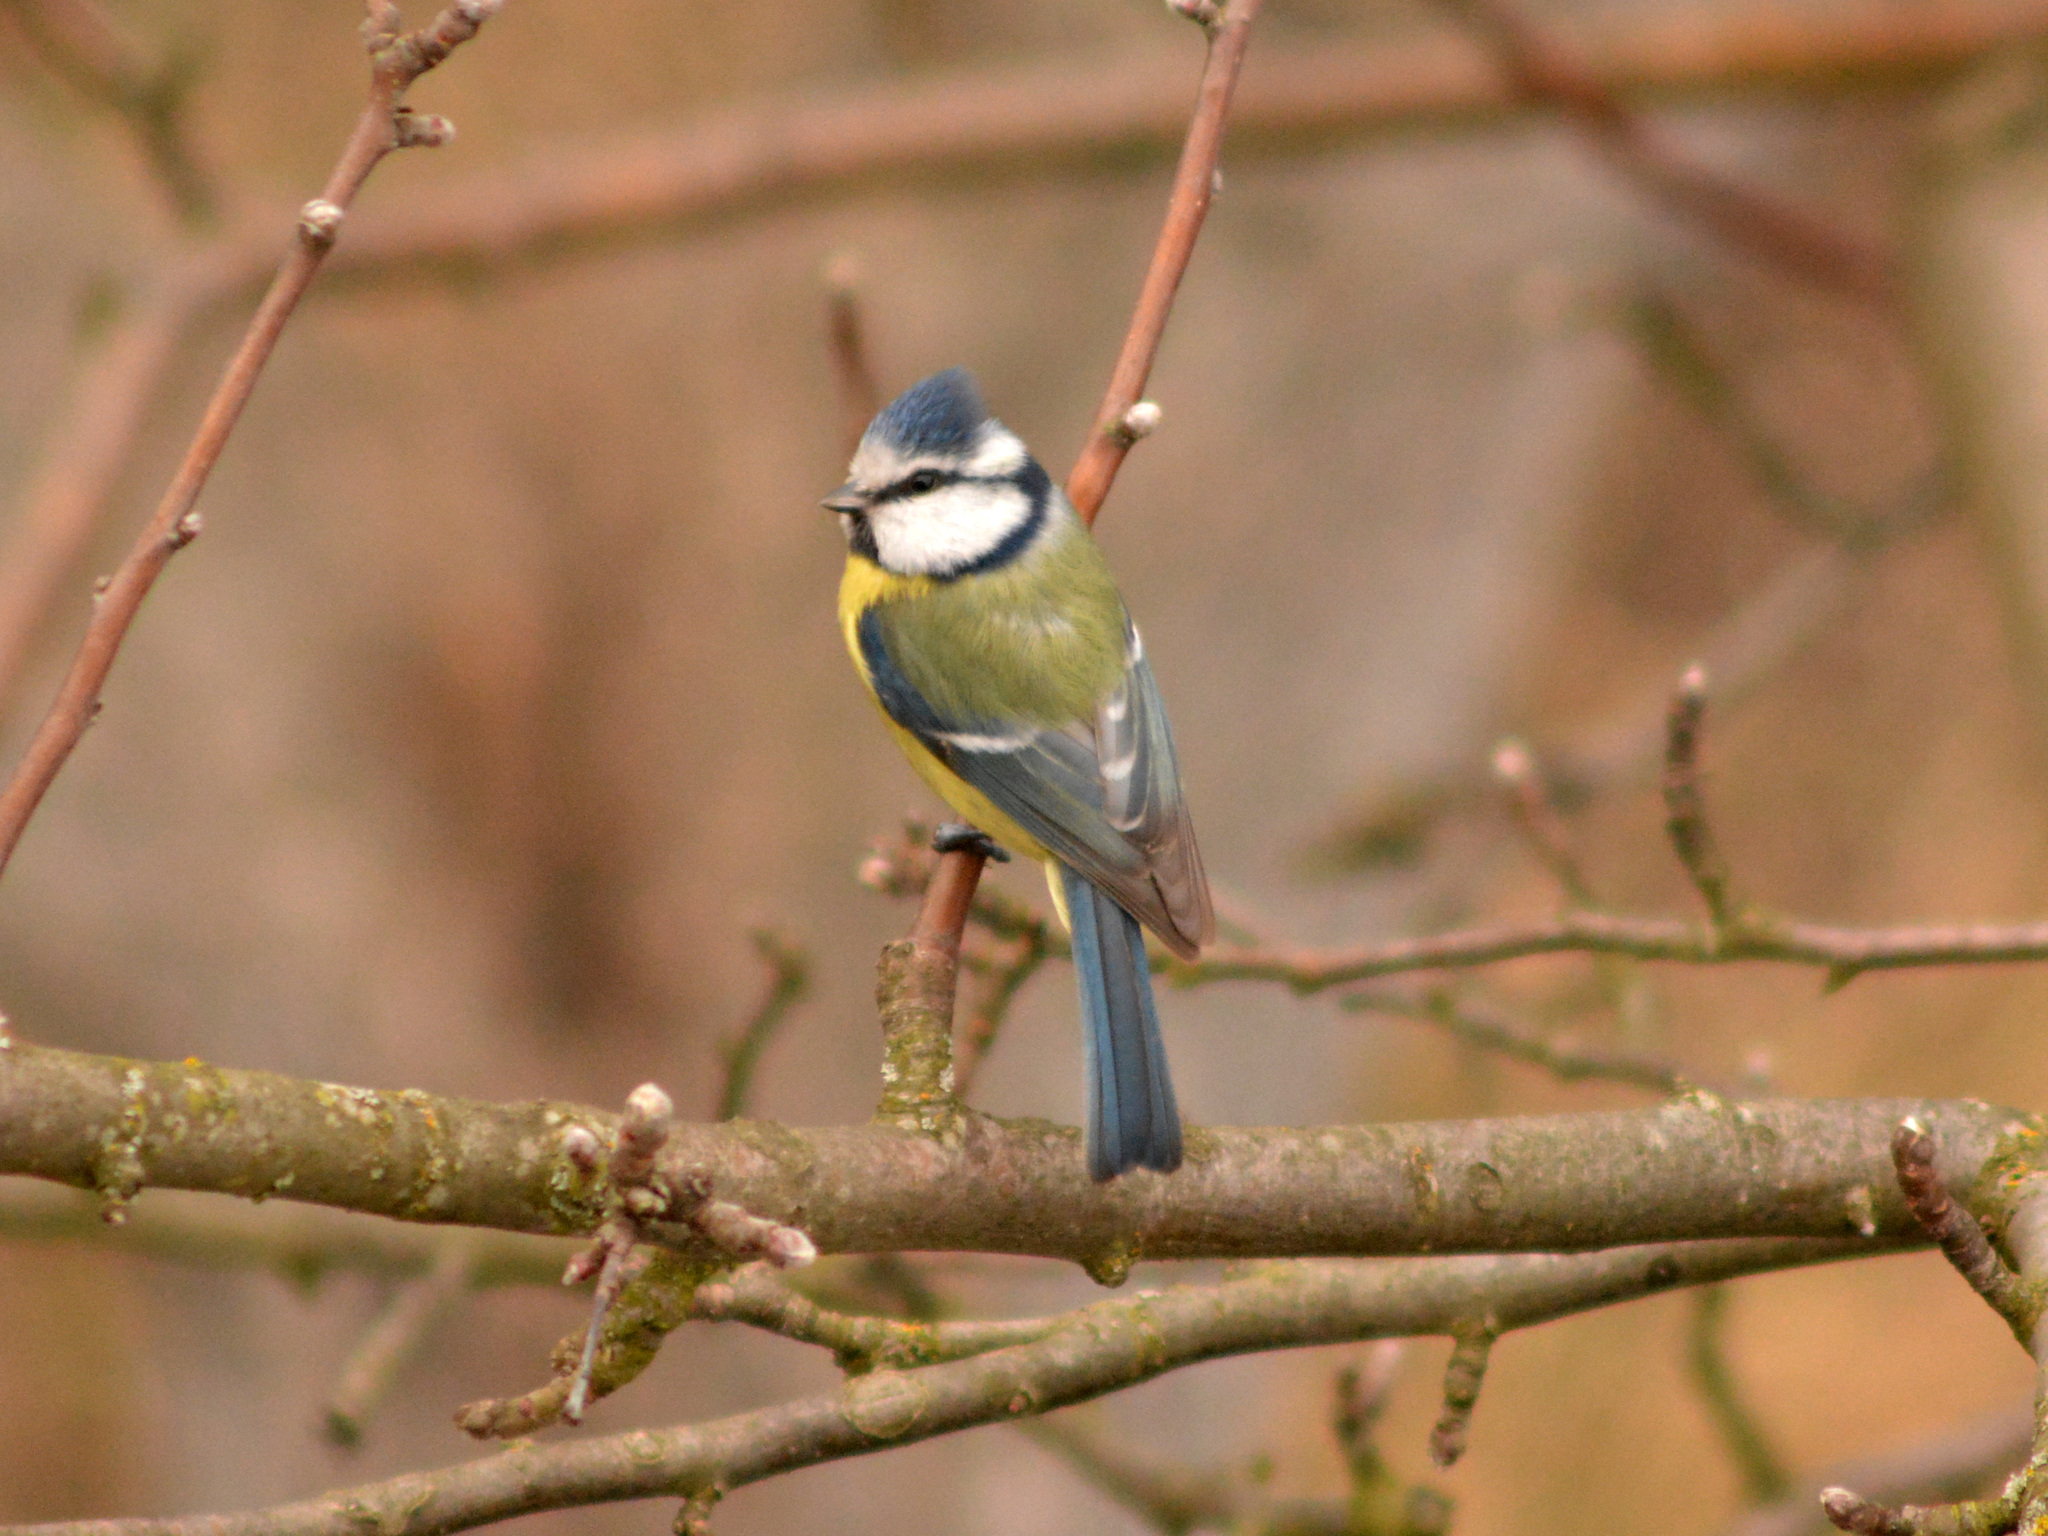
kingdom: Animalia
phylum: Chordata
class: Aves
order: Passeriformes
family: Paridae
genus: Cyanistes
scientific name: Cyanistes caeruleus
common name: Eurasian blue tit
